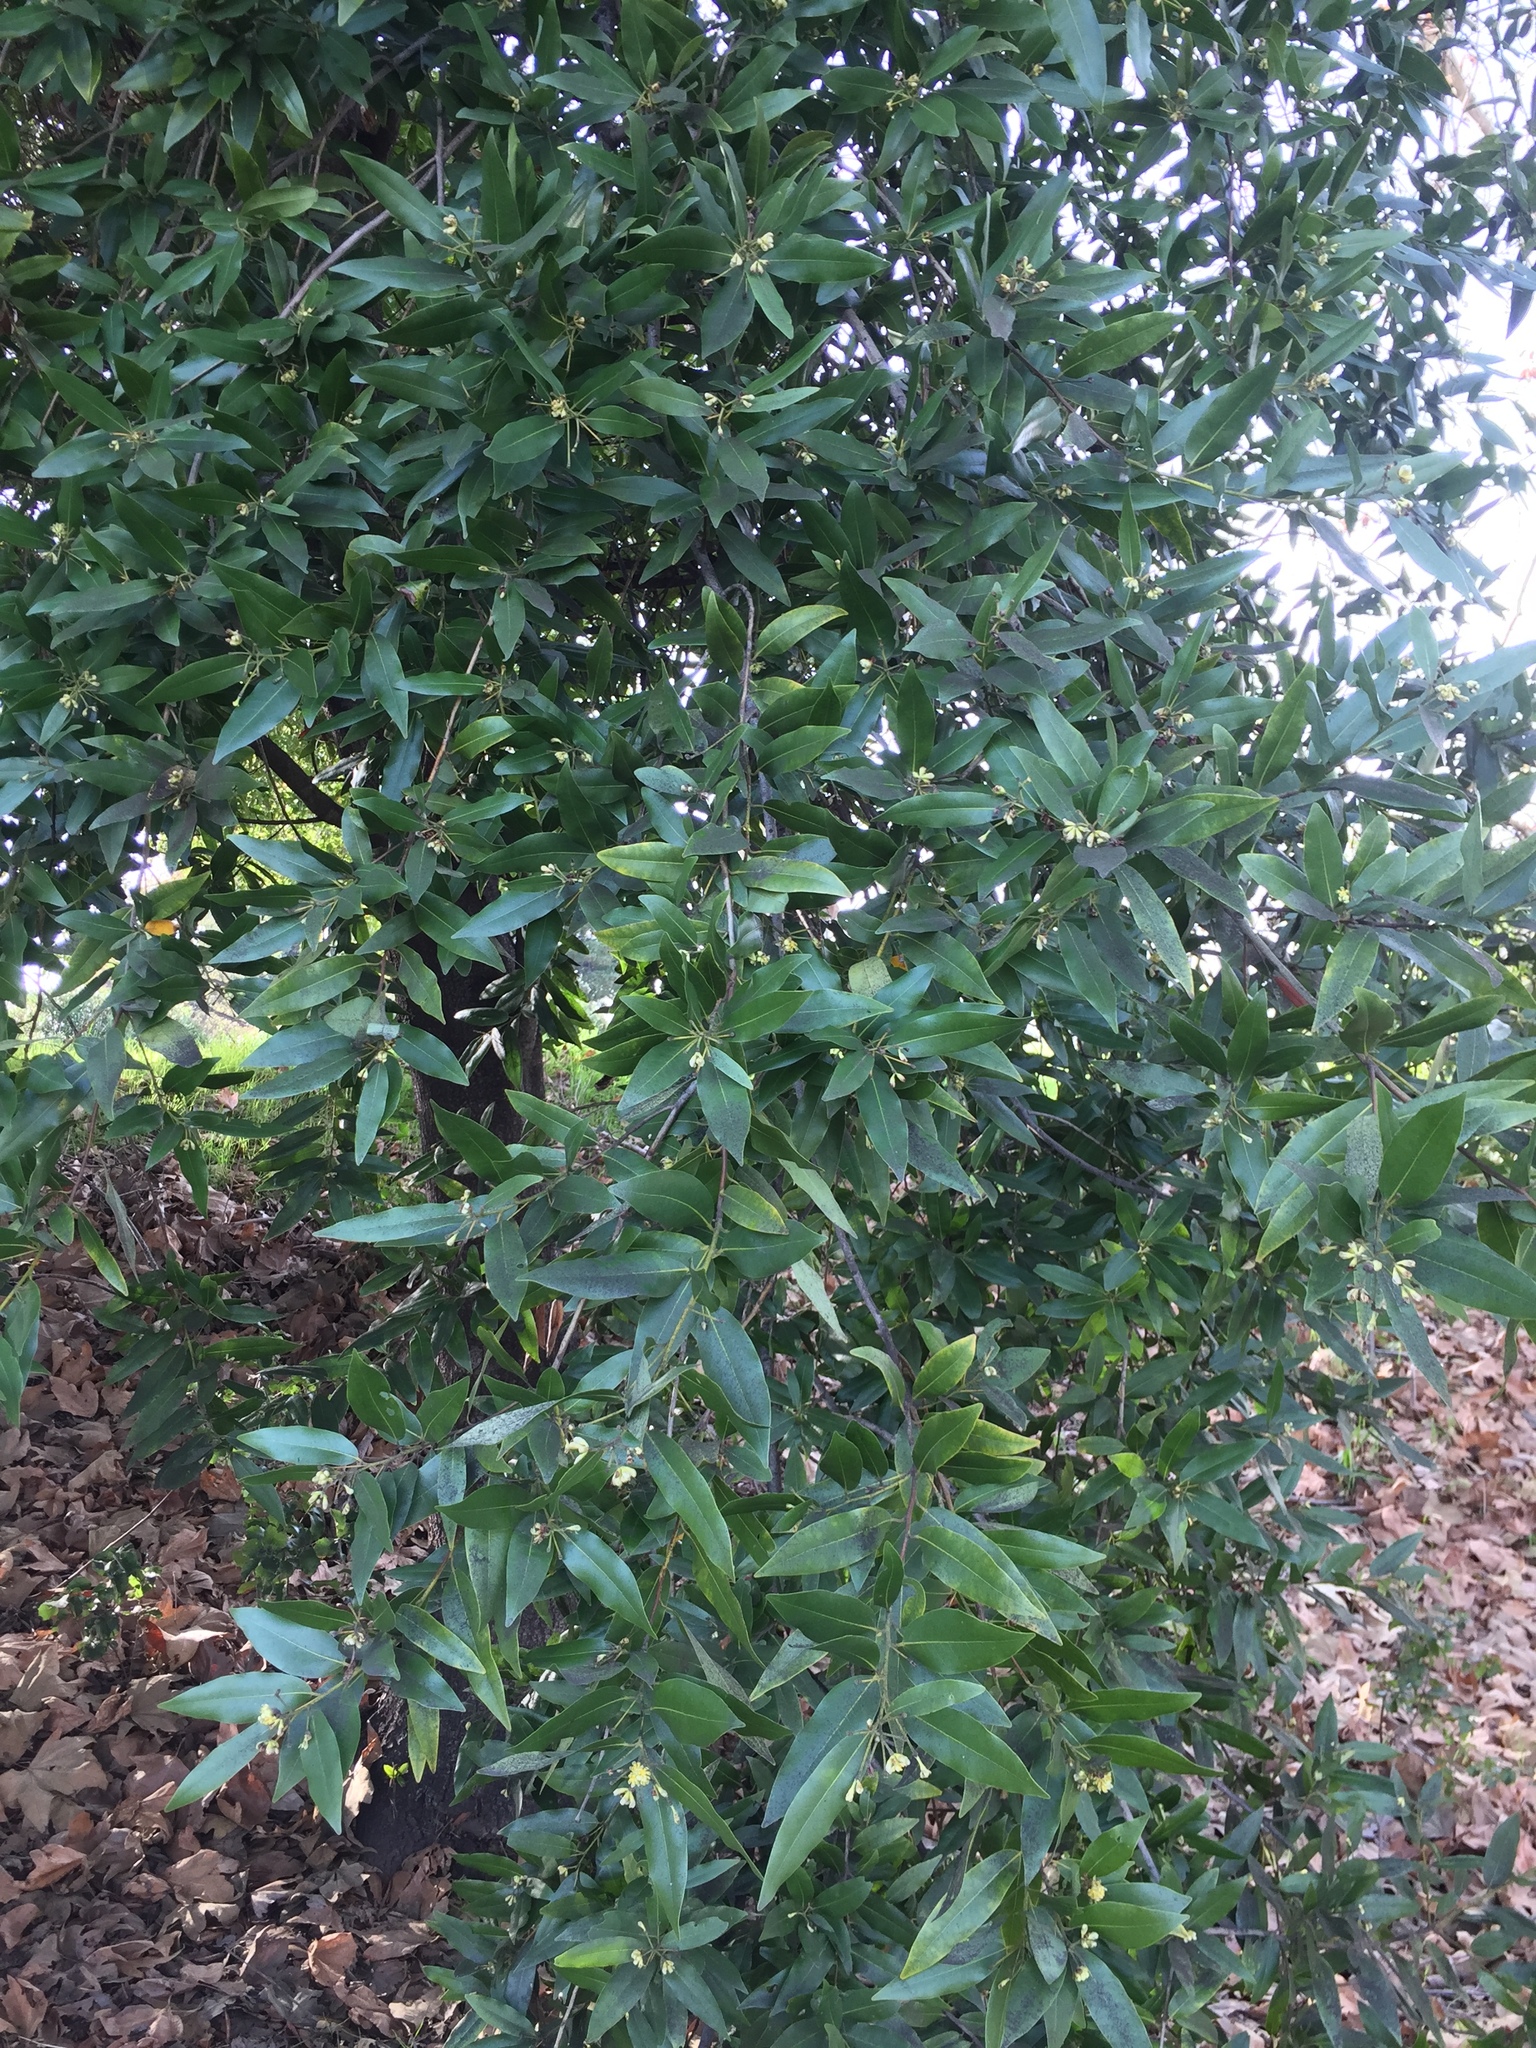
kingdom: Plantae
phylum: Tracheophyta
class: Magnoliopsida
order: Laurales
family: Lauraceae
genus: Umbellularia
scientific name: Umbellularia californica
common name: California bay
